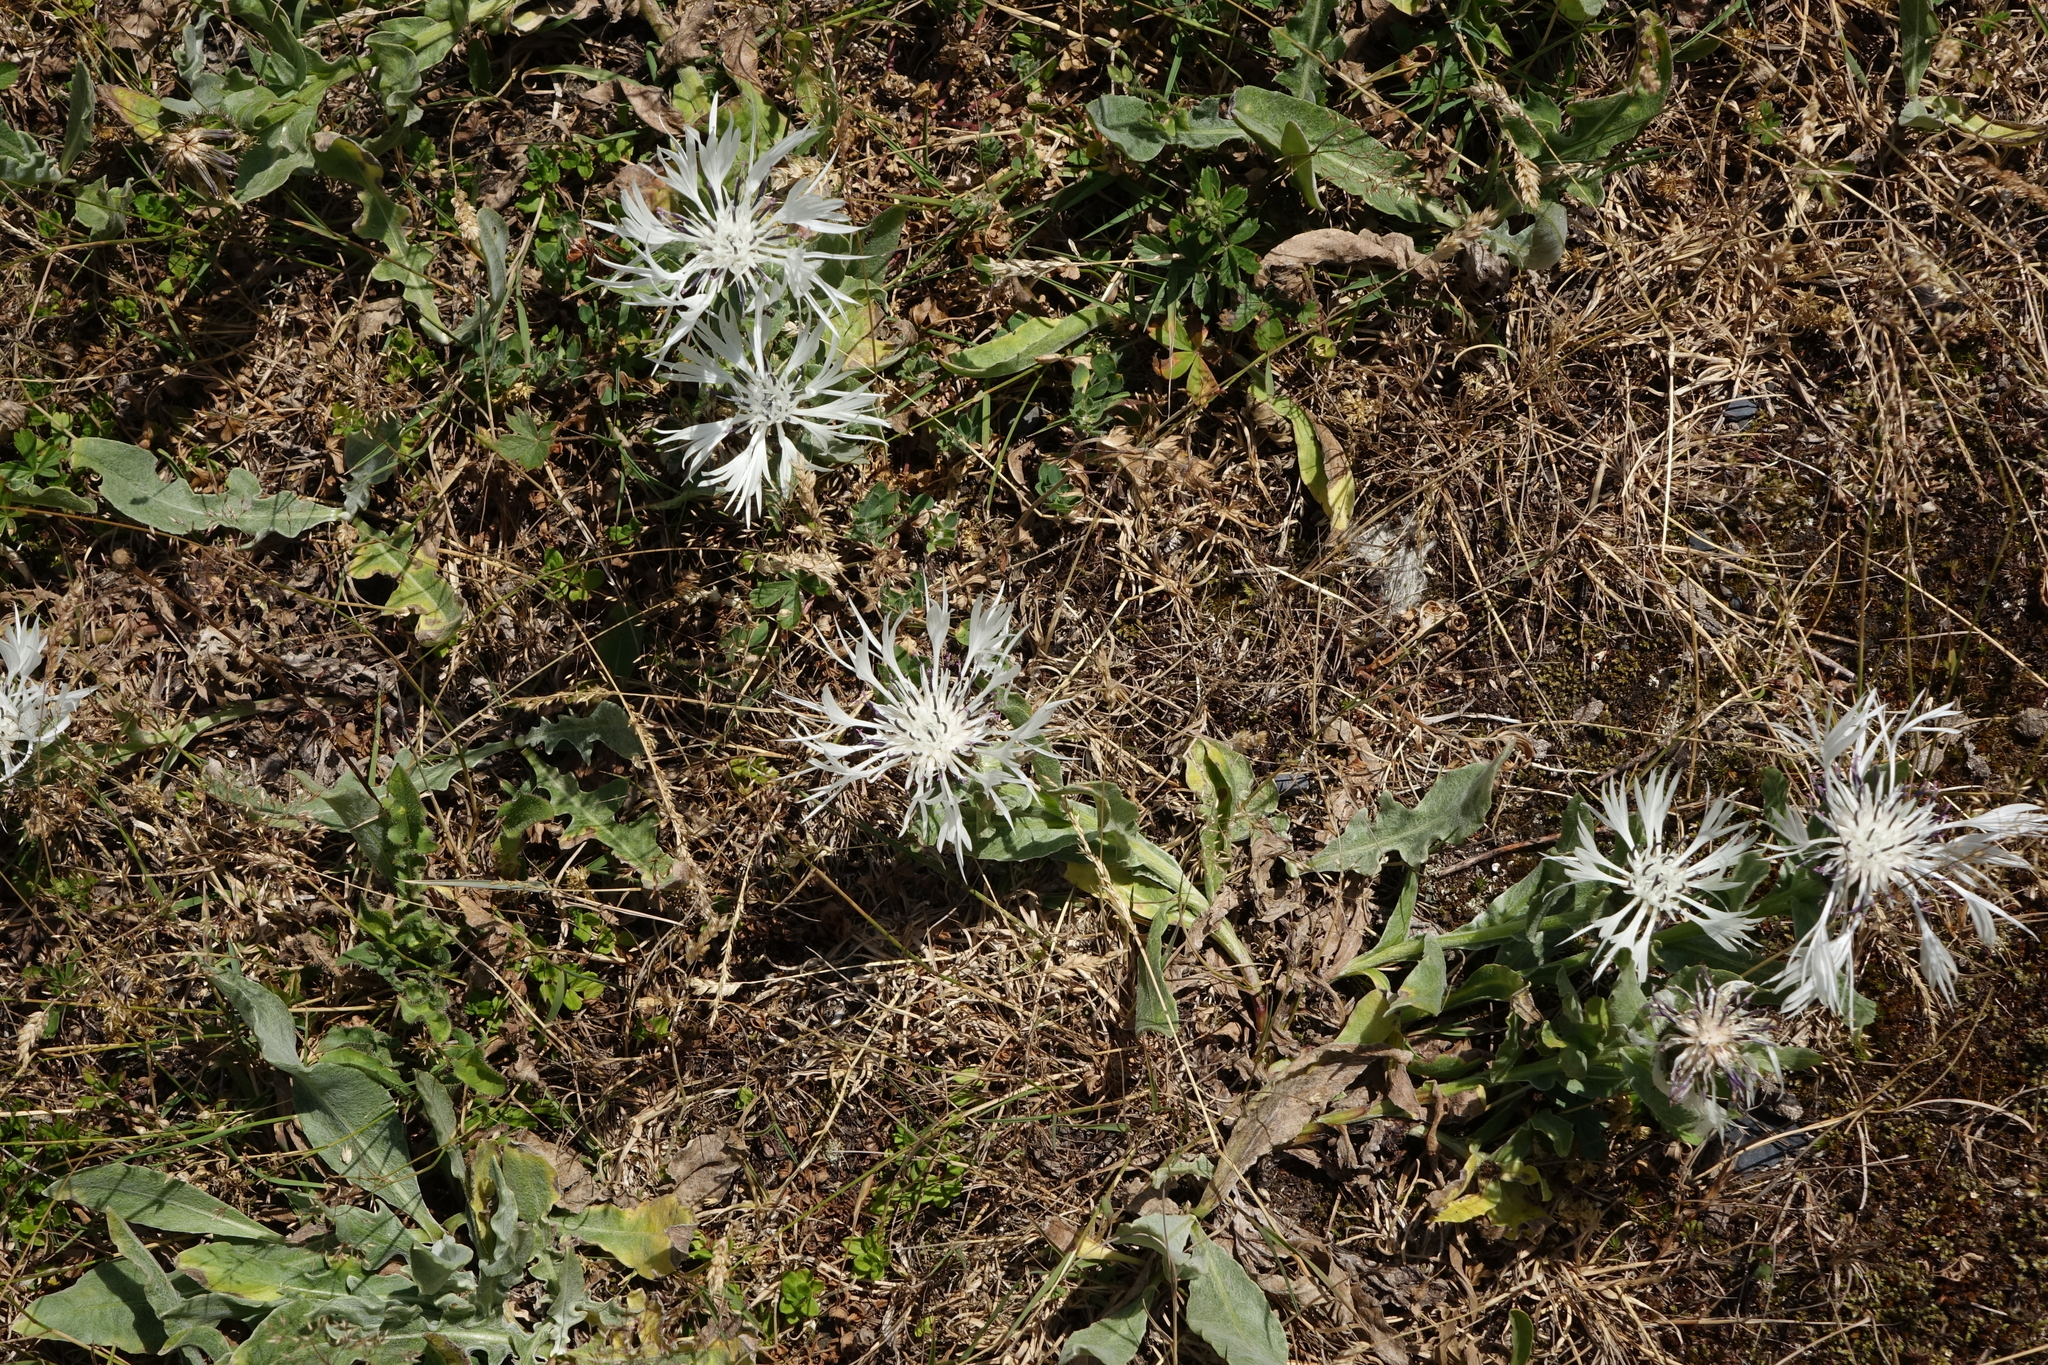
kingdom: Plantae
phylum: Tracheophyta
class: Magnoliopsida
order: Asterales
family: Asteraceae
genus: Centaurea
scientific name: Centaurea cheiranthifolia
